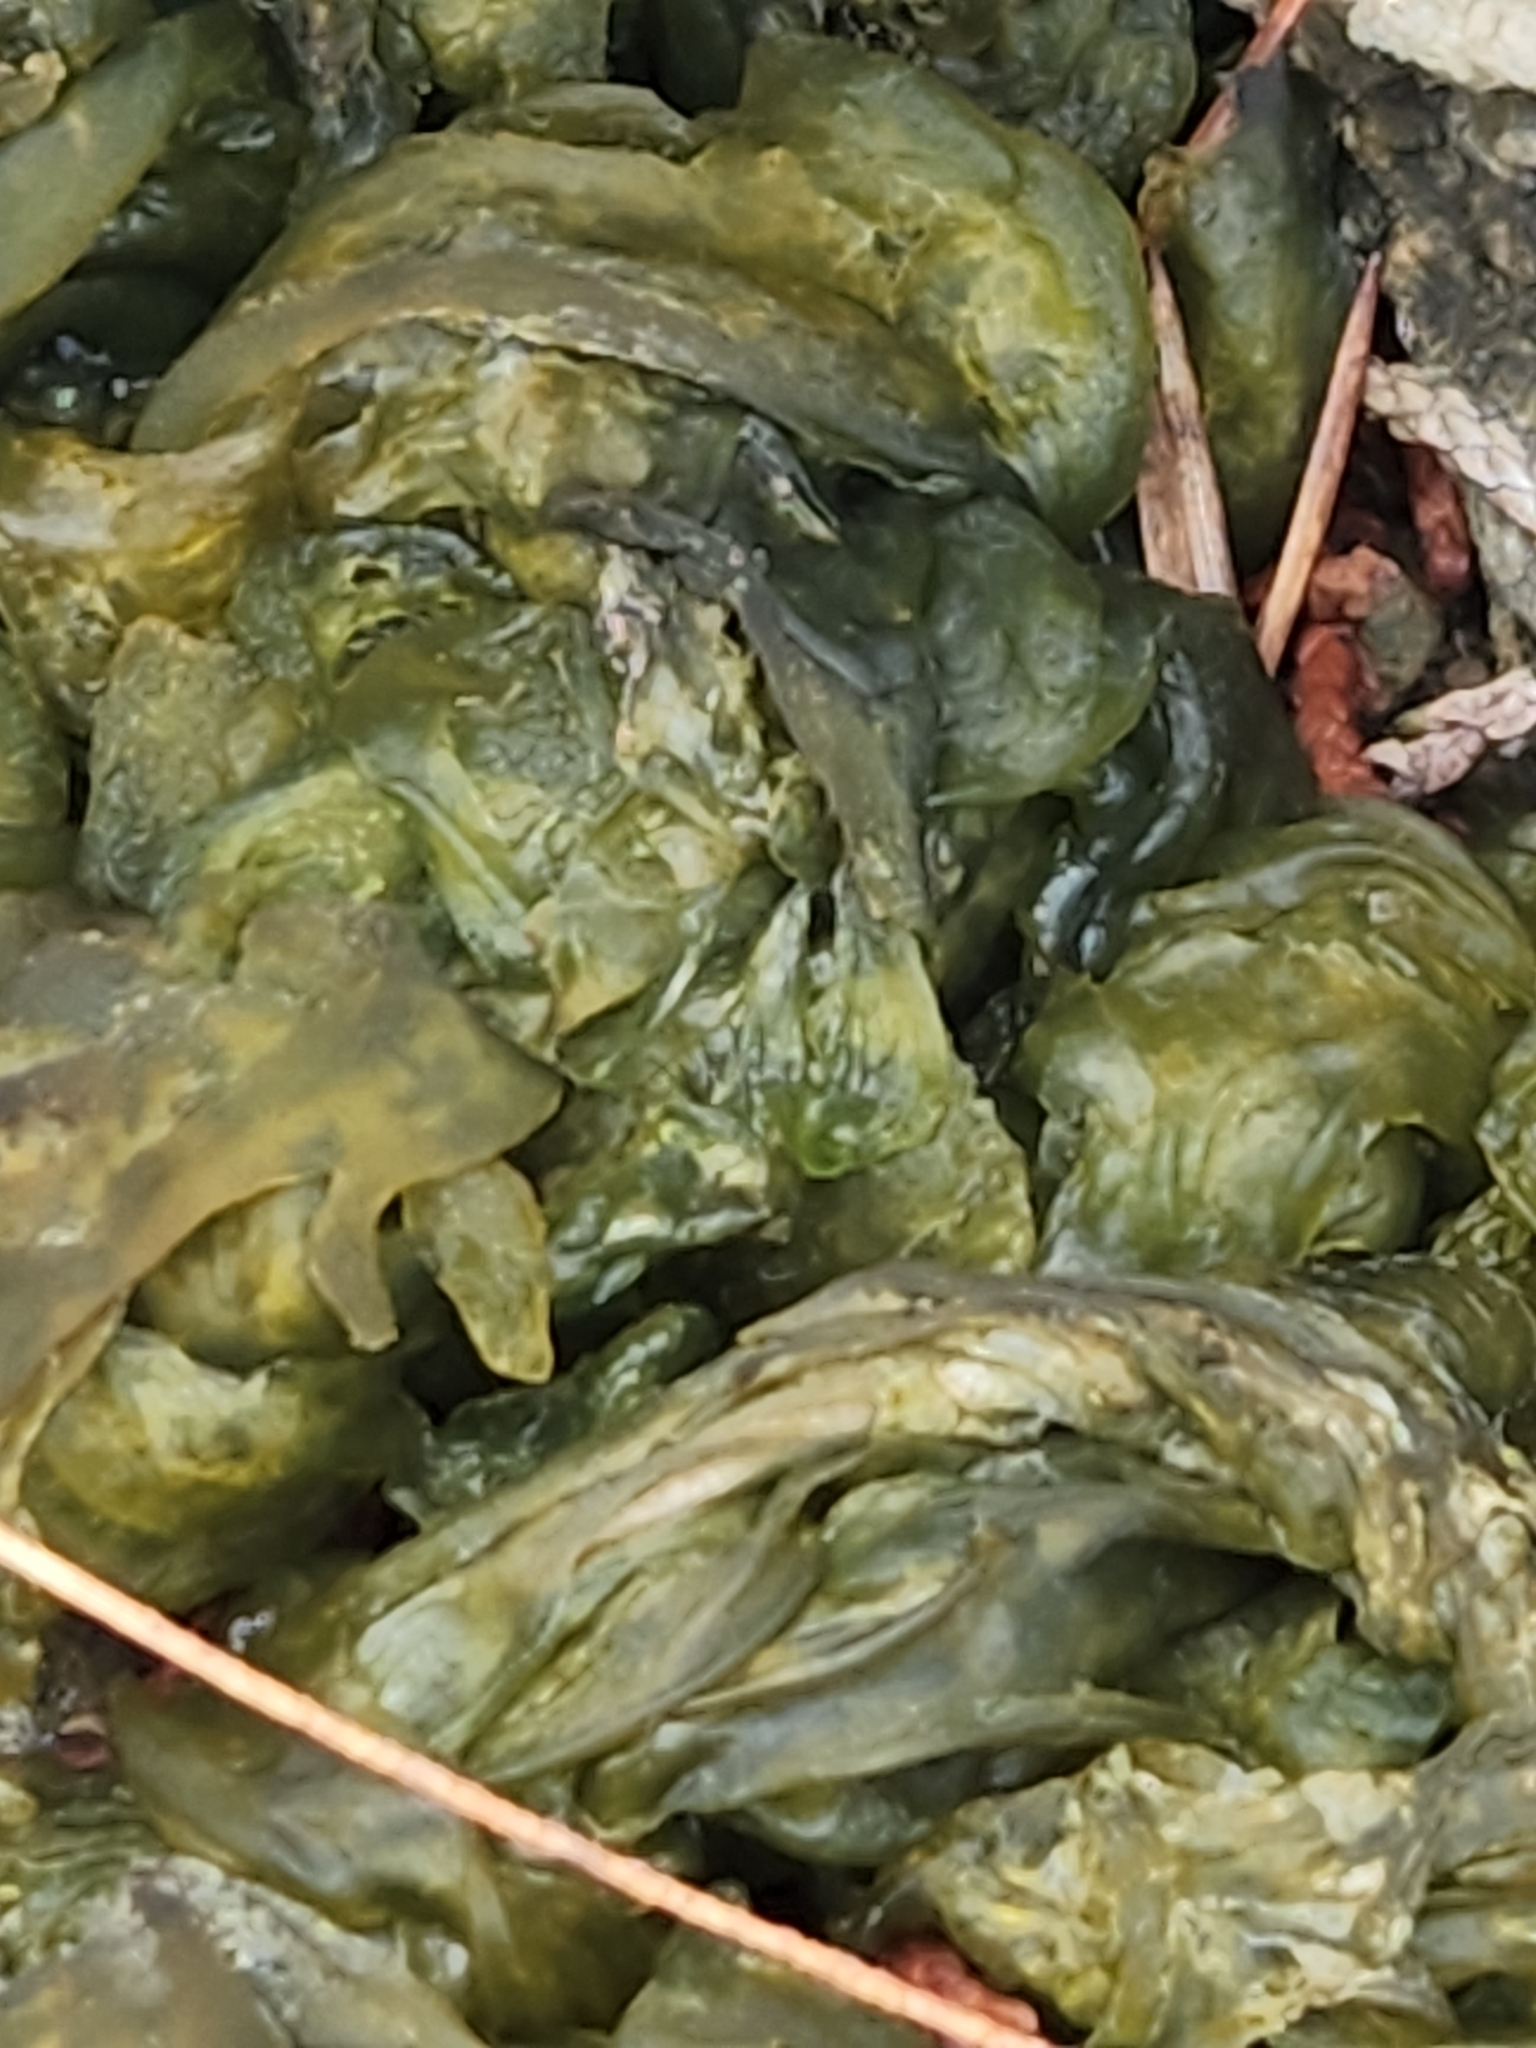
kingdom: Bacteria
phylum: Cyanobacteria
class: Cyanobacteriia
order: Cyanobacteriales
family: Nostocaceae
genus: Nostoc
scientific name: Nostoc commune
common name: Star jelly
